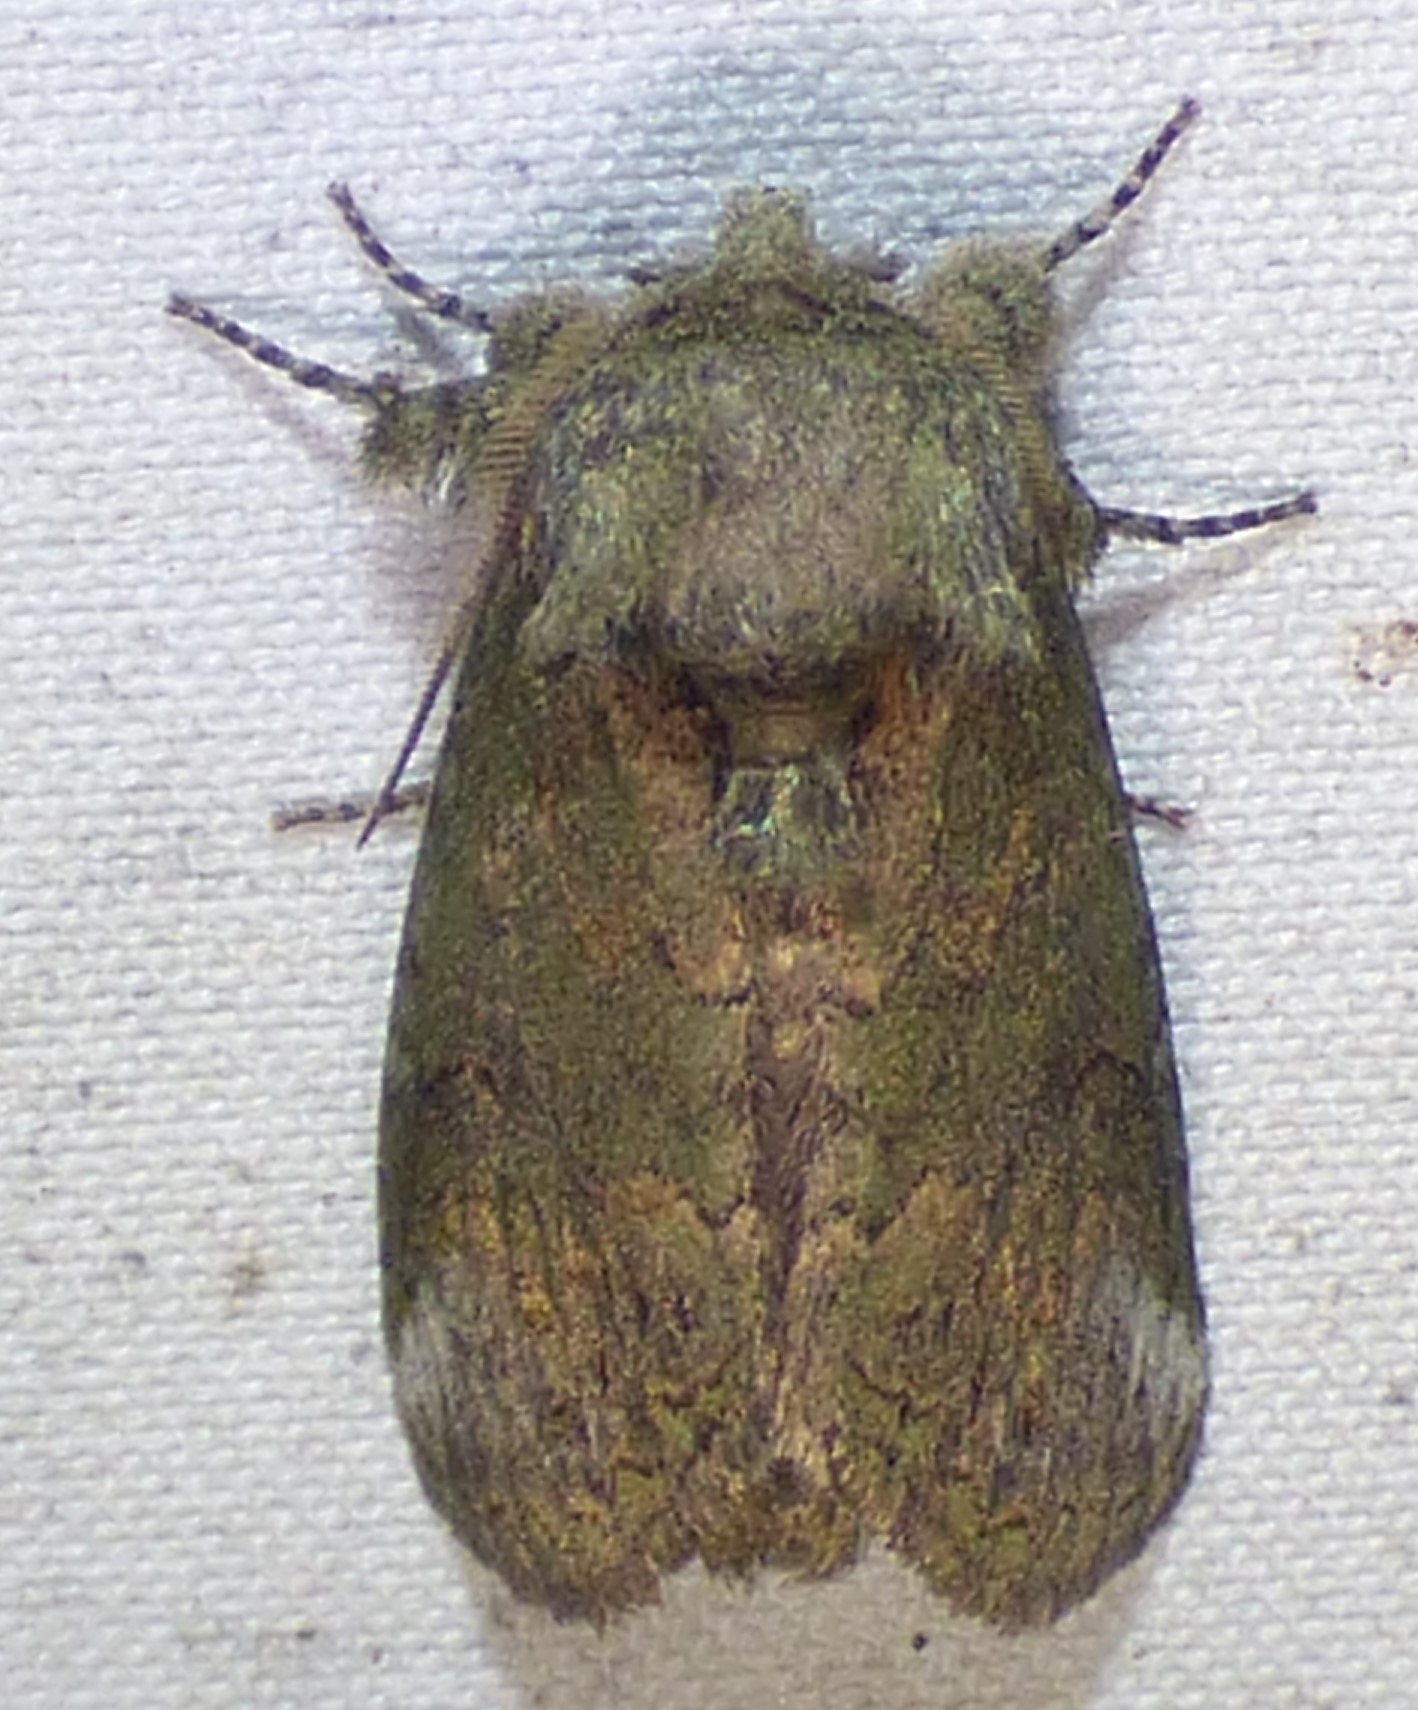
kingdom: Animalia
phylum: Arthropoda
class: Insecta
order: Lepidoptera
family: Notodontidae
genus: Rifargia
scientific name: Rifargia
